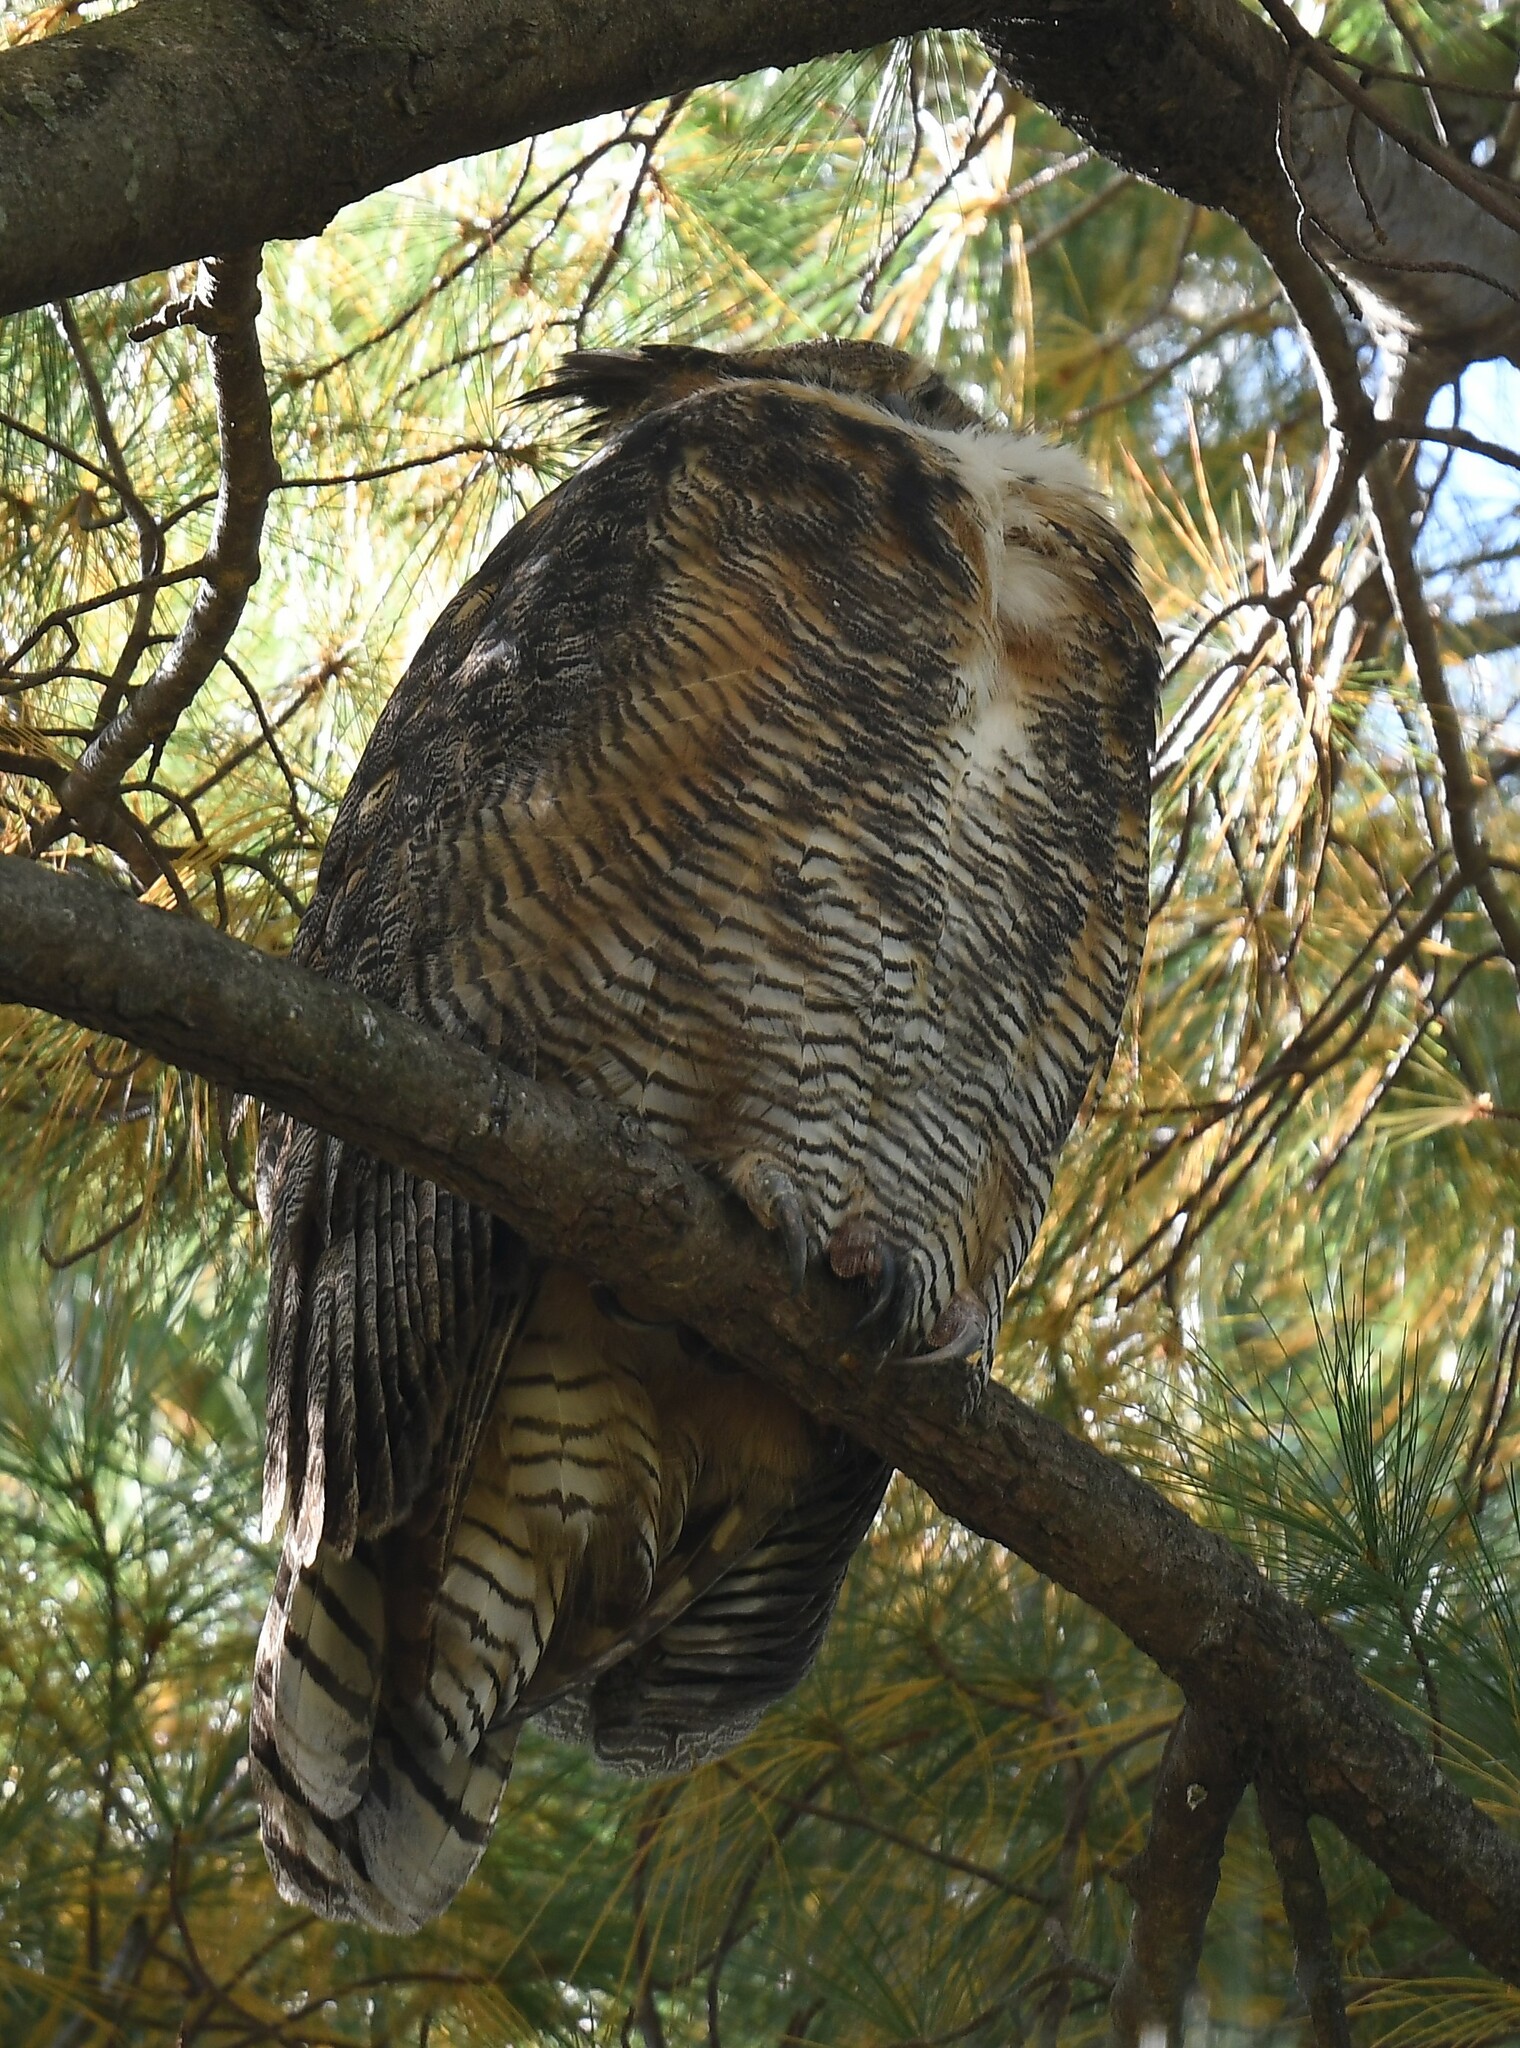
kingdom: Animalia
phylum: Chordata
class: Aves
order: Strigiformes
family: Strigidae
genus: Bubo
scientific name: Bubo virginianus
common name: Great horned owl
